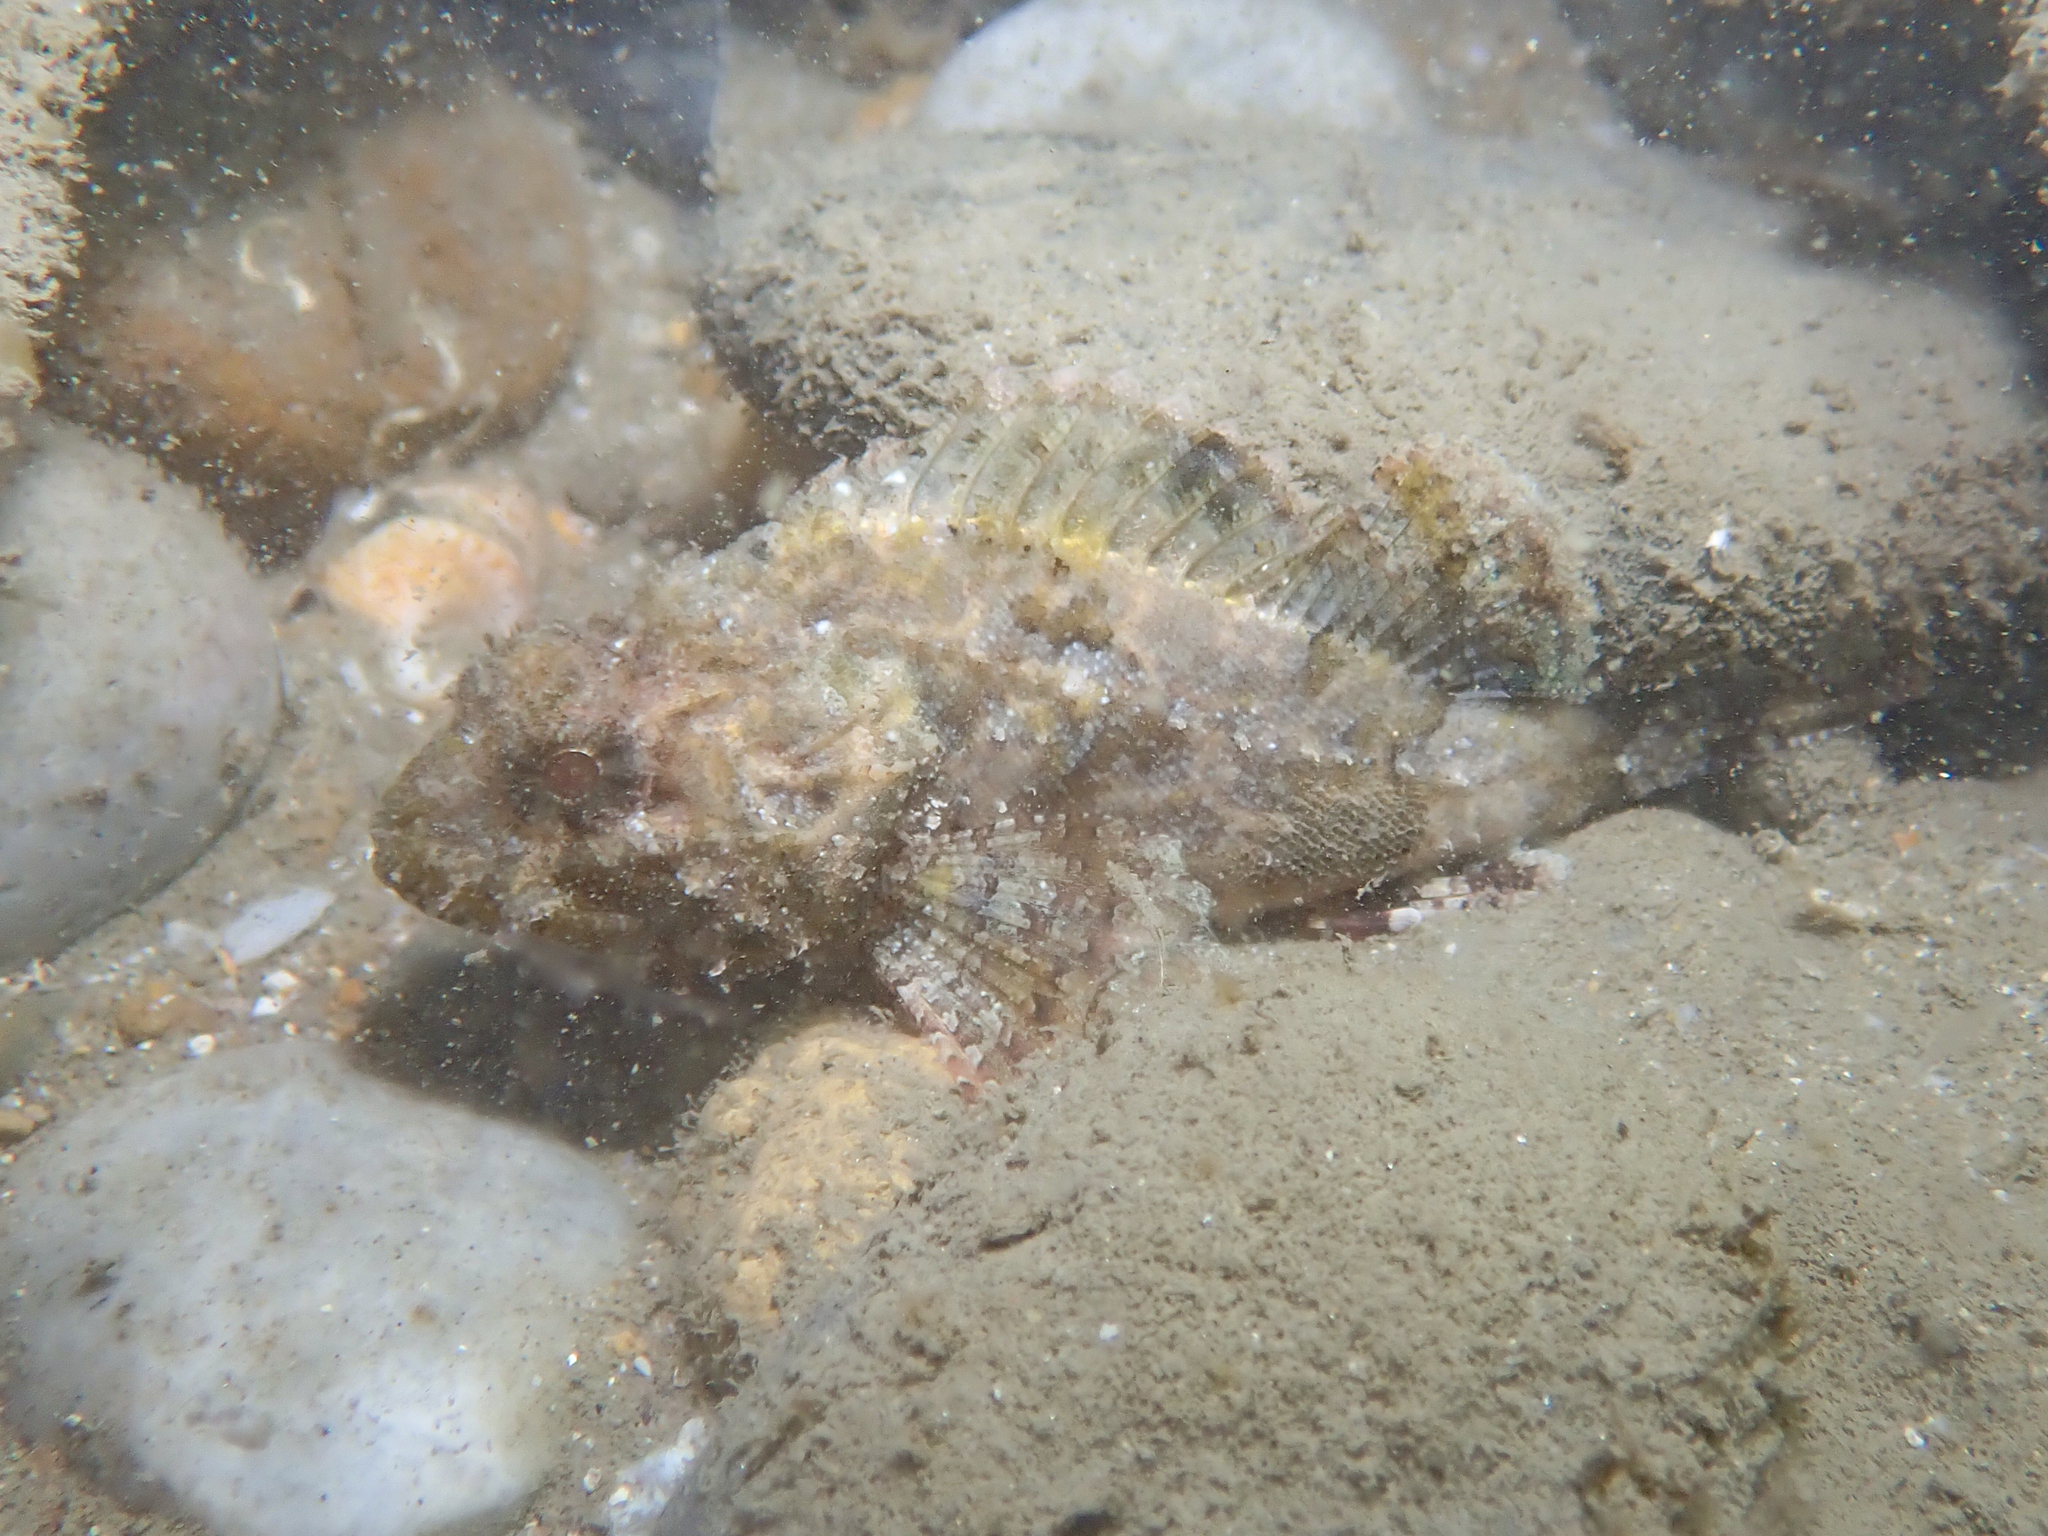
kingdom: Animalia
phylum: Chordata
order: Scorpaeniformes
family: Scorpaenidae
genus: Scorpaena
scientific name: Scorpaena porcus
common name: Black scorpionfish
